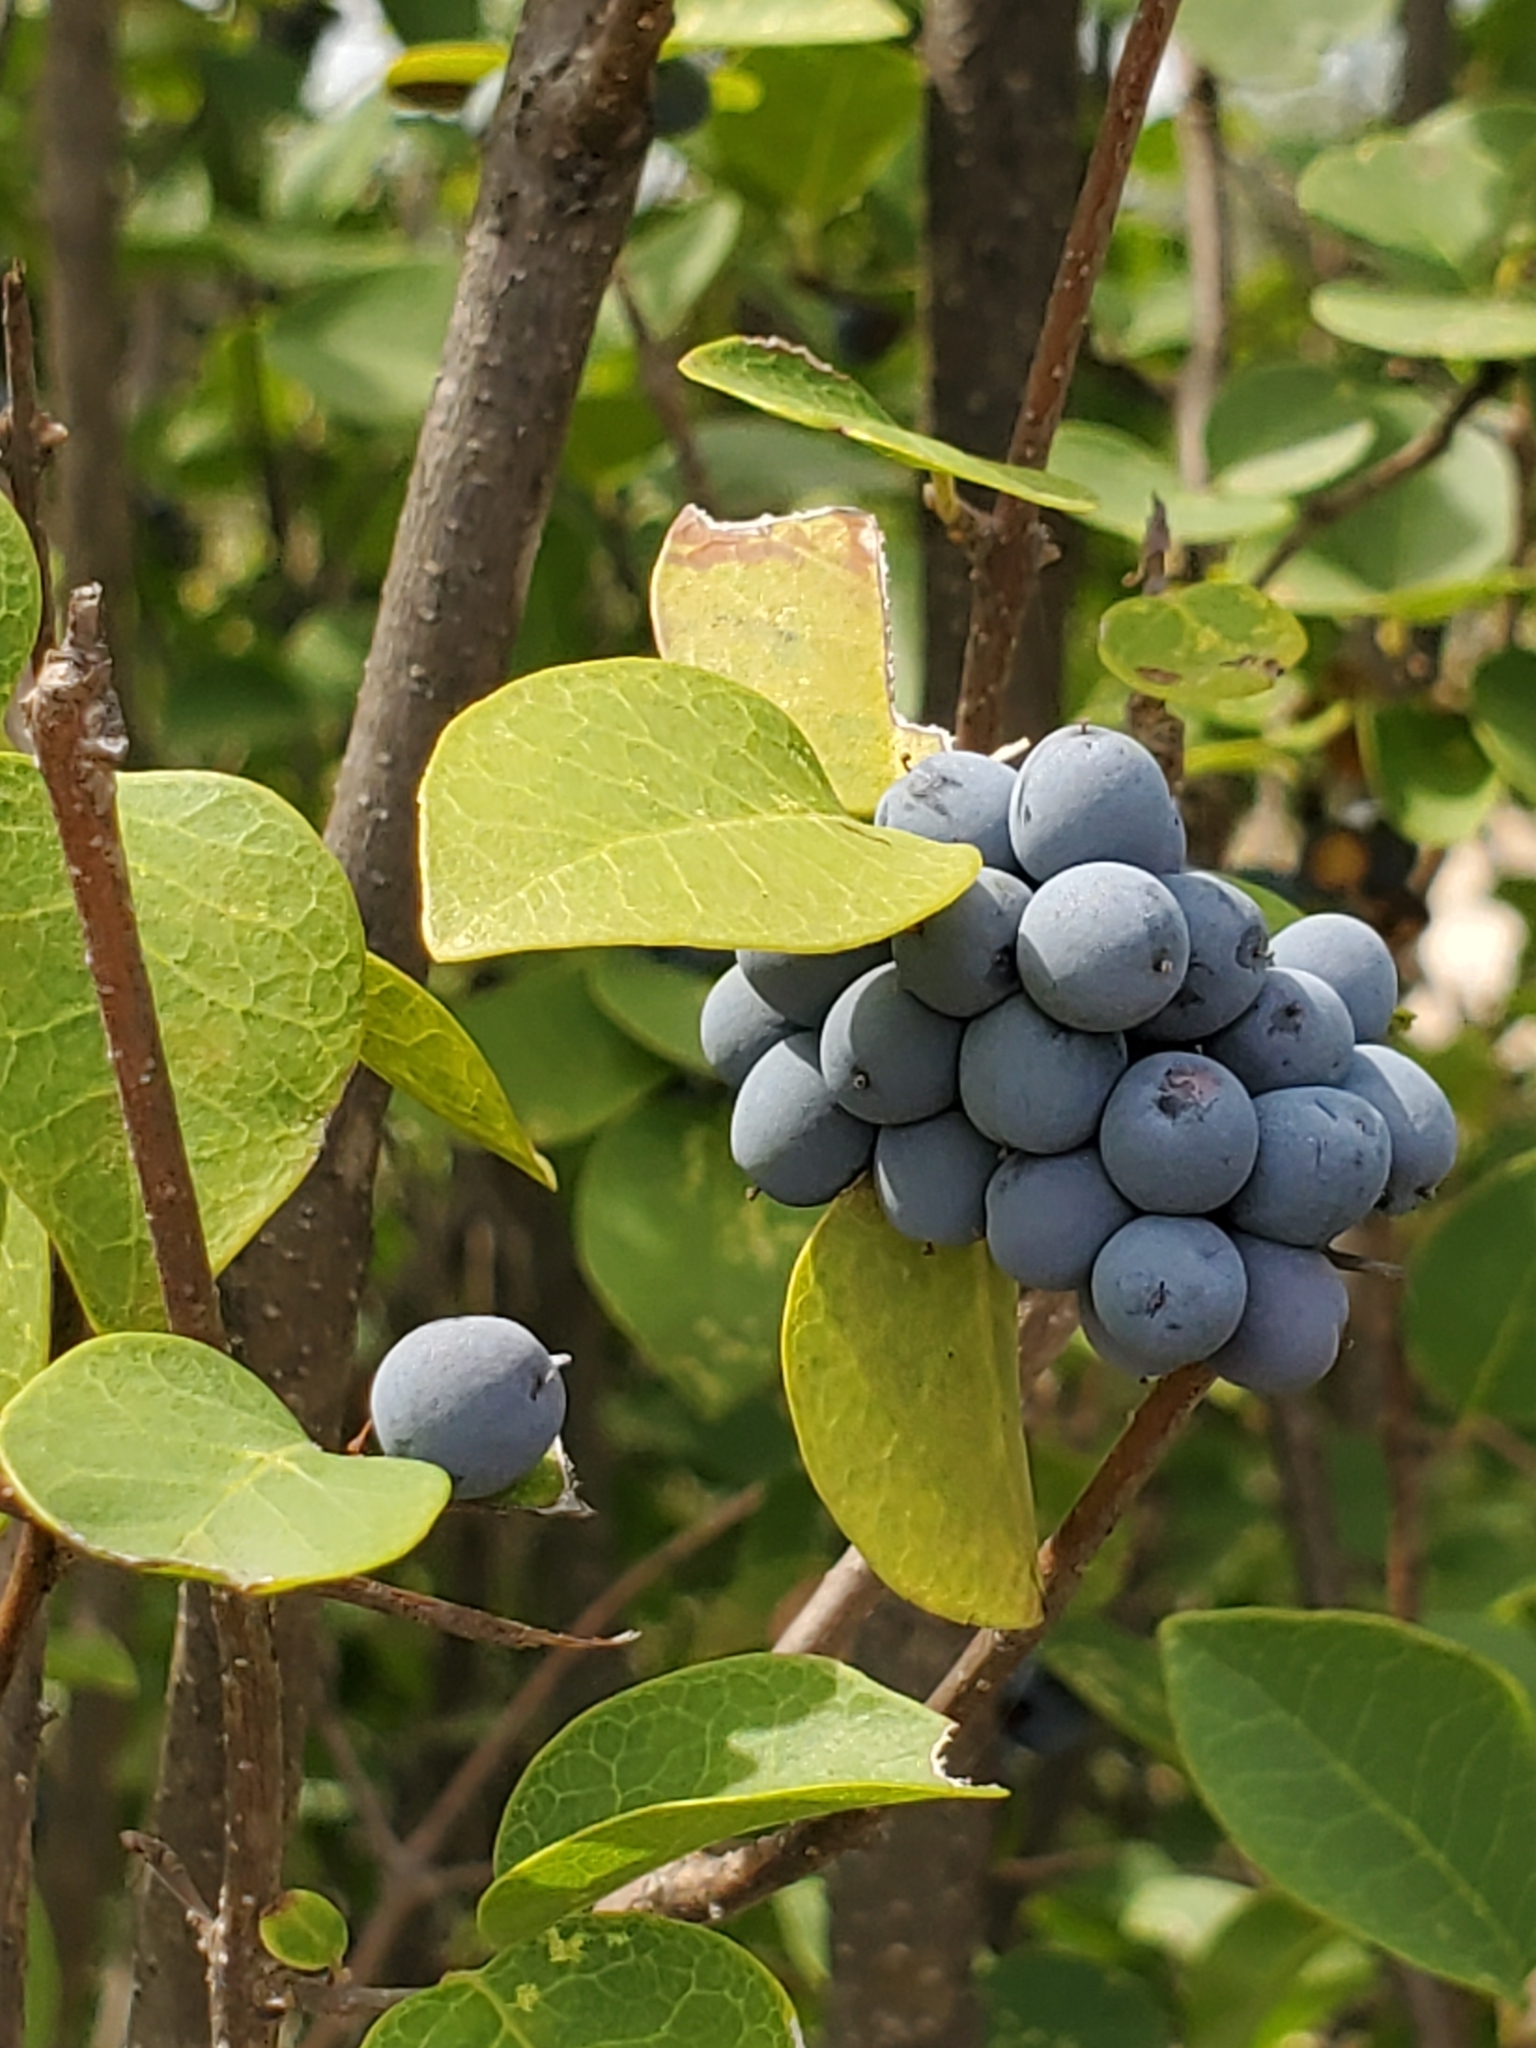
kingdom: Plantae
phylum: Tracheophyta
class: Magnoliopsida
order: Lamiales
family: Oleaceae
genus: Forestiera
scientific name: Forestiera reticulata
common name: Netleaf swamp-privet
